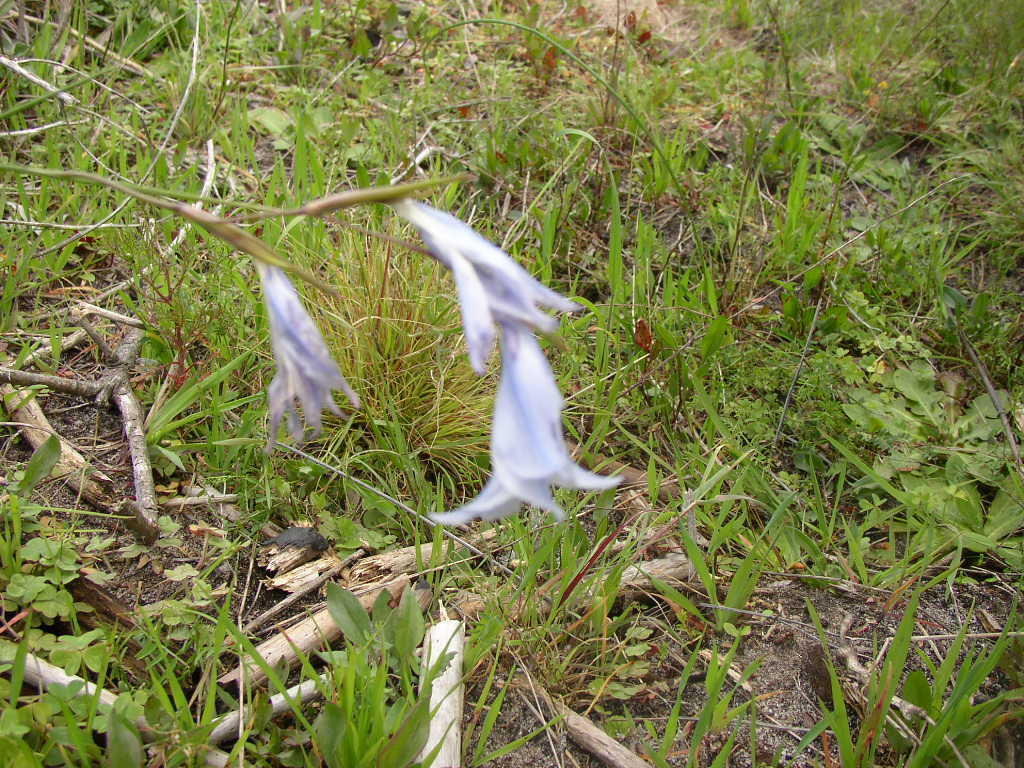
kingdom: Plantae
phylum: Tracheophyta
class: Liliopsida
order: Asparagales
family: Iridaceae
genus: Gladiolus
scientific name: Gladiolus gracilis
